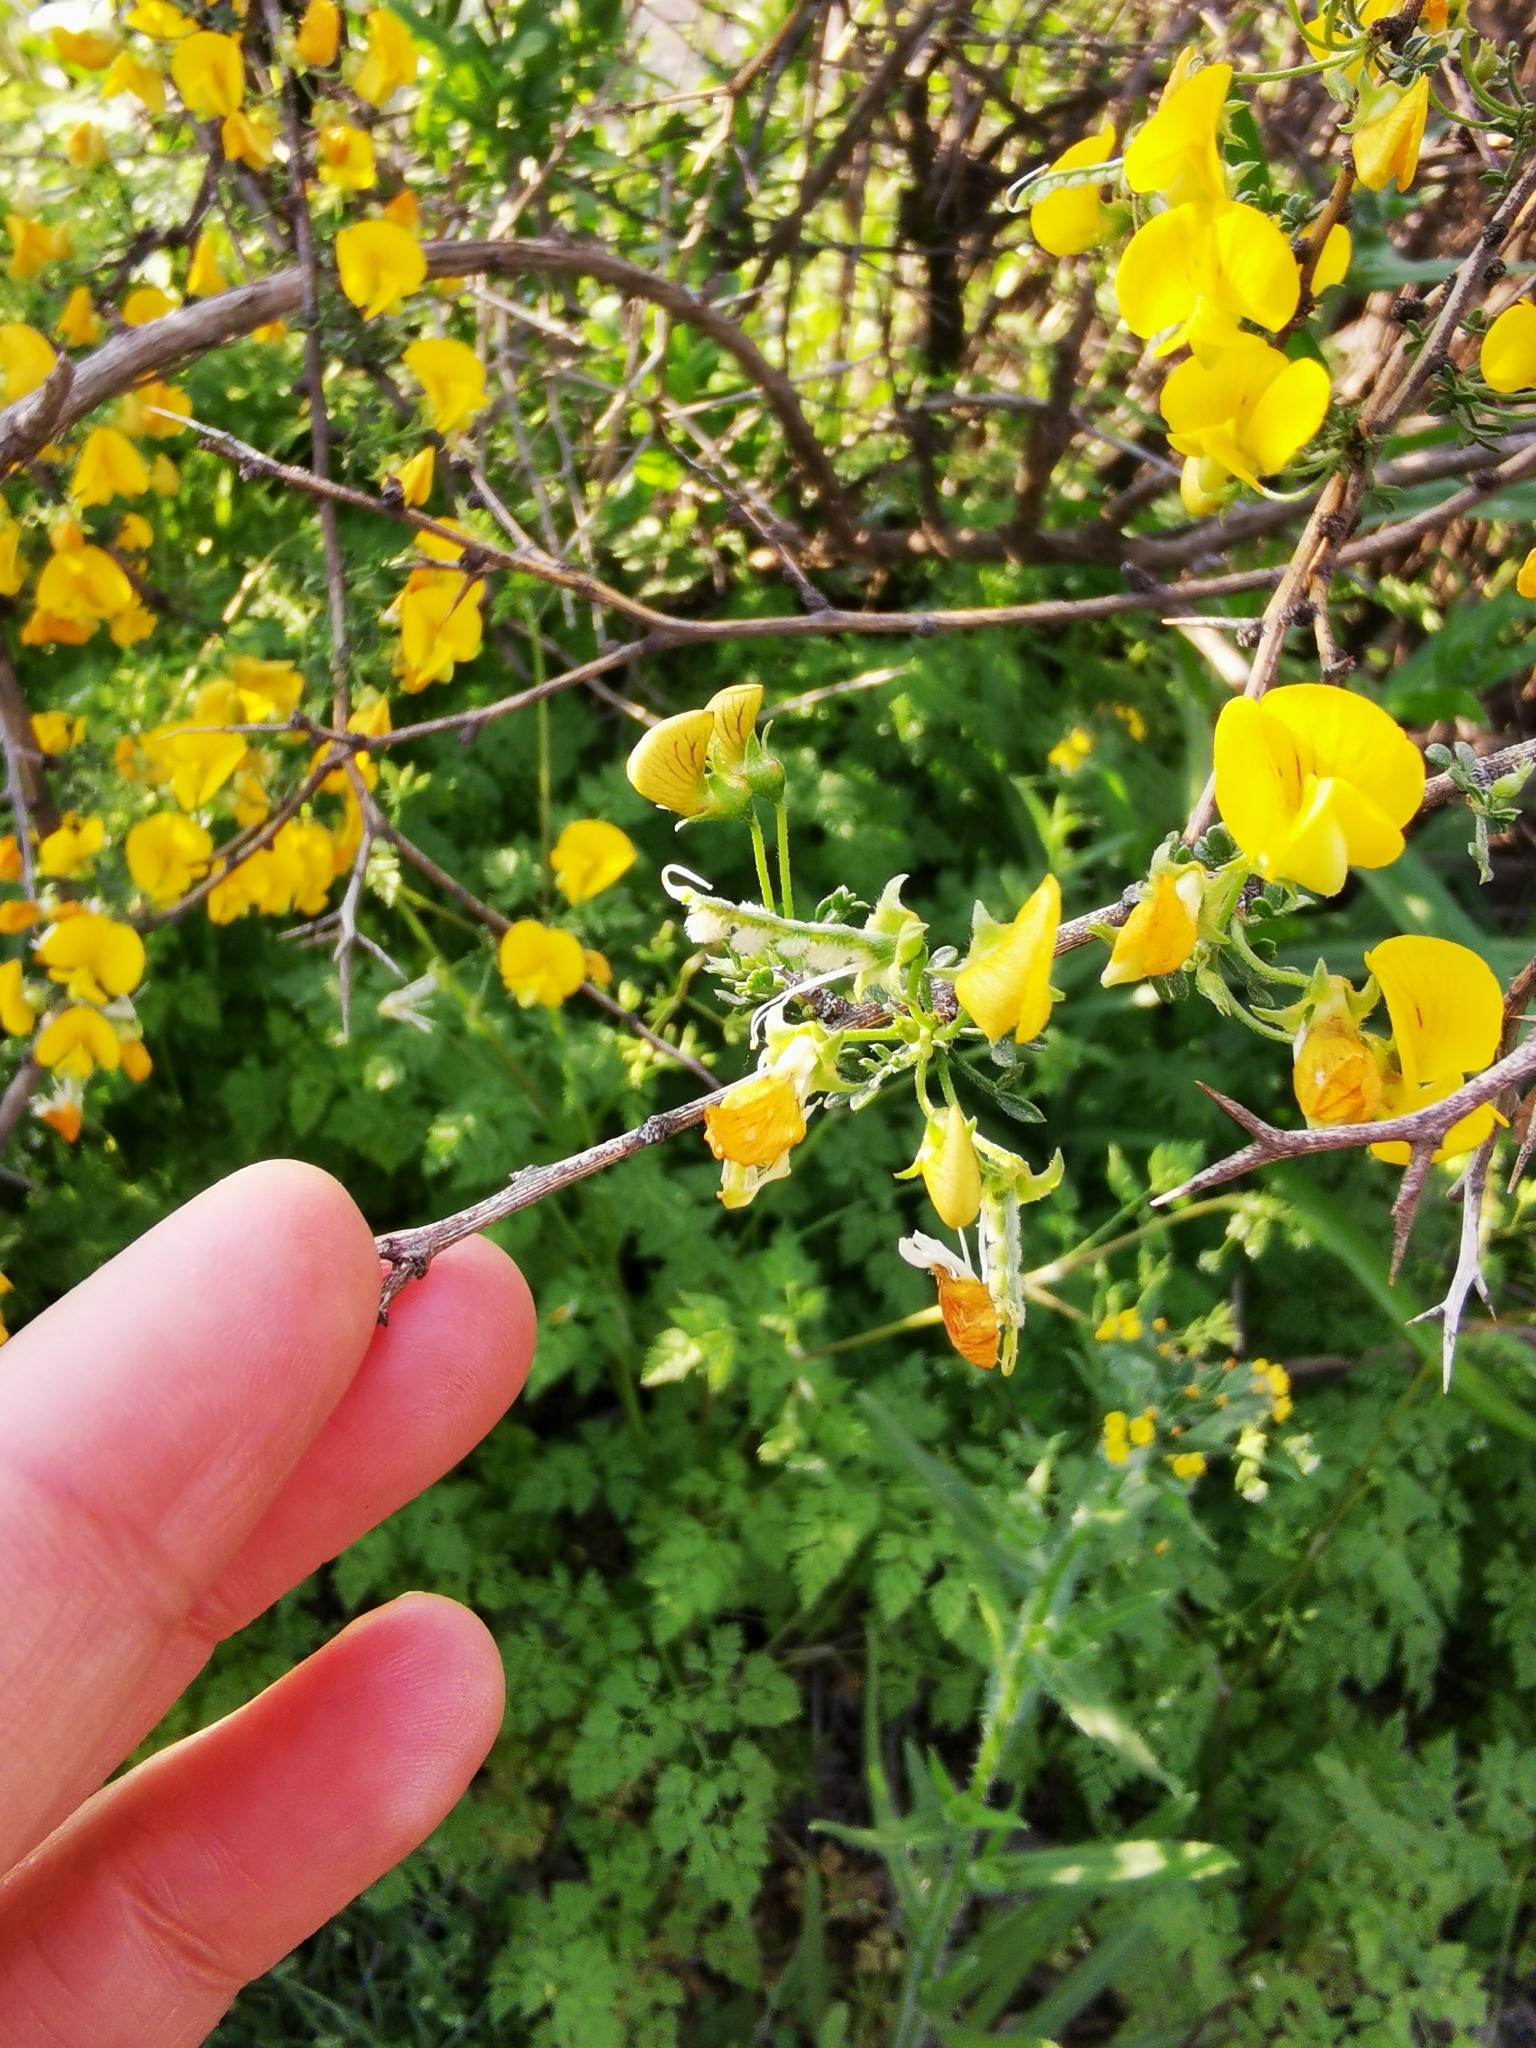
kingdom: Plantae
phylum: Tracheophyta
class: Magnoliopsida
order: Fabales
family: Fabaceae
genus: Adesmia
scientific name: Adesmia confusa
